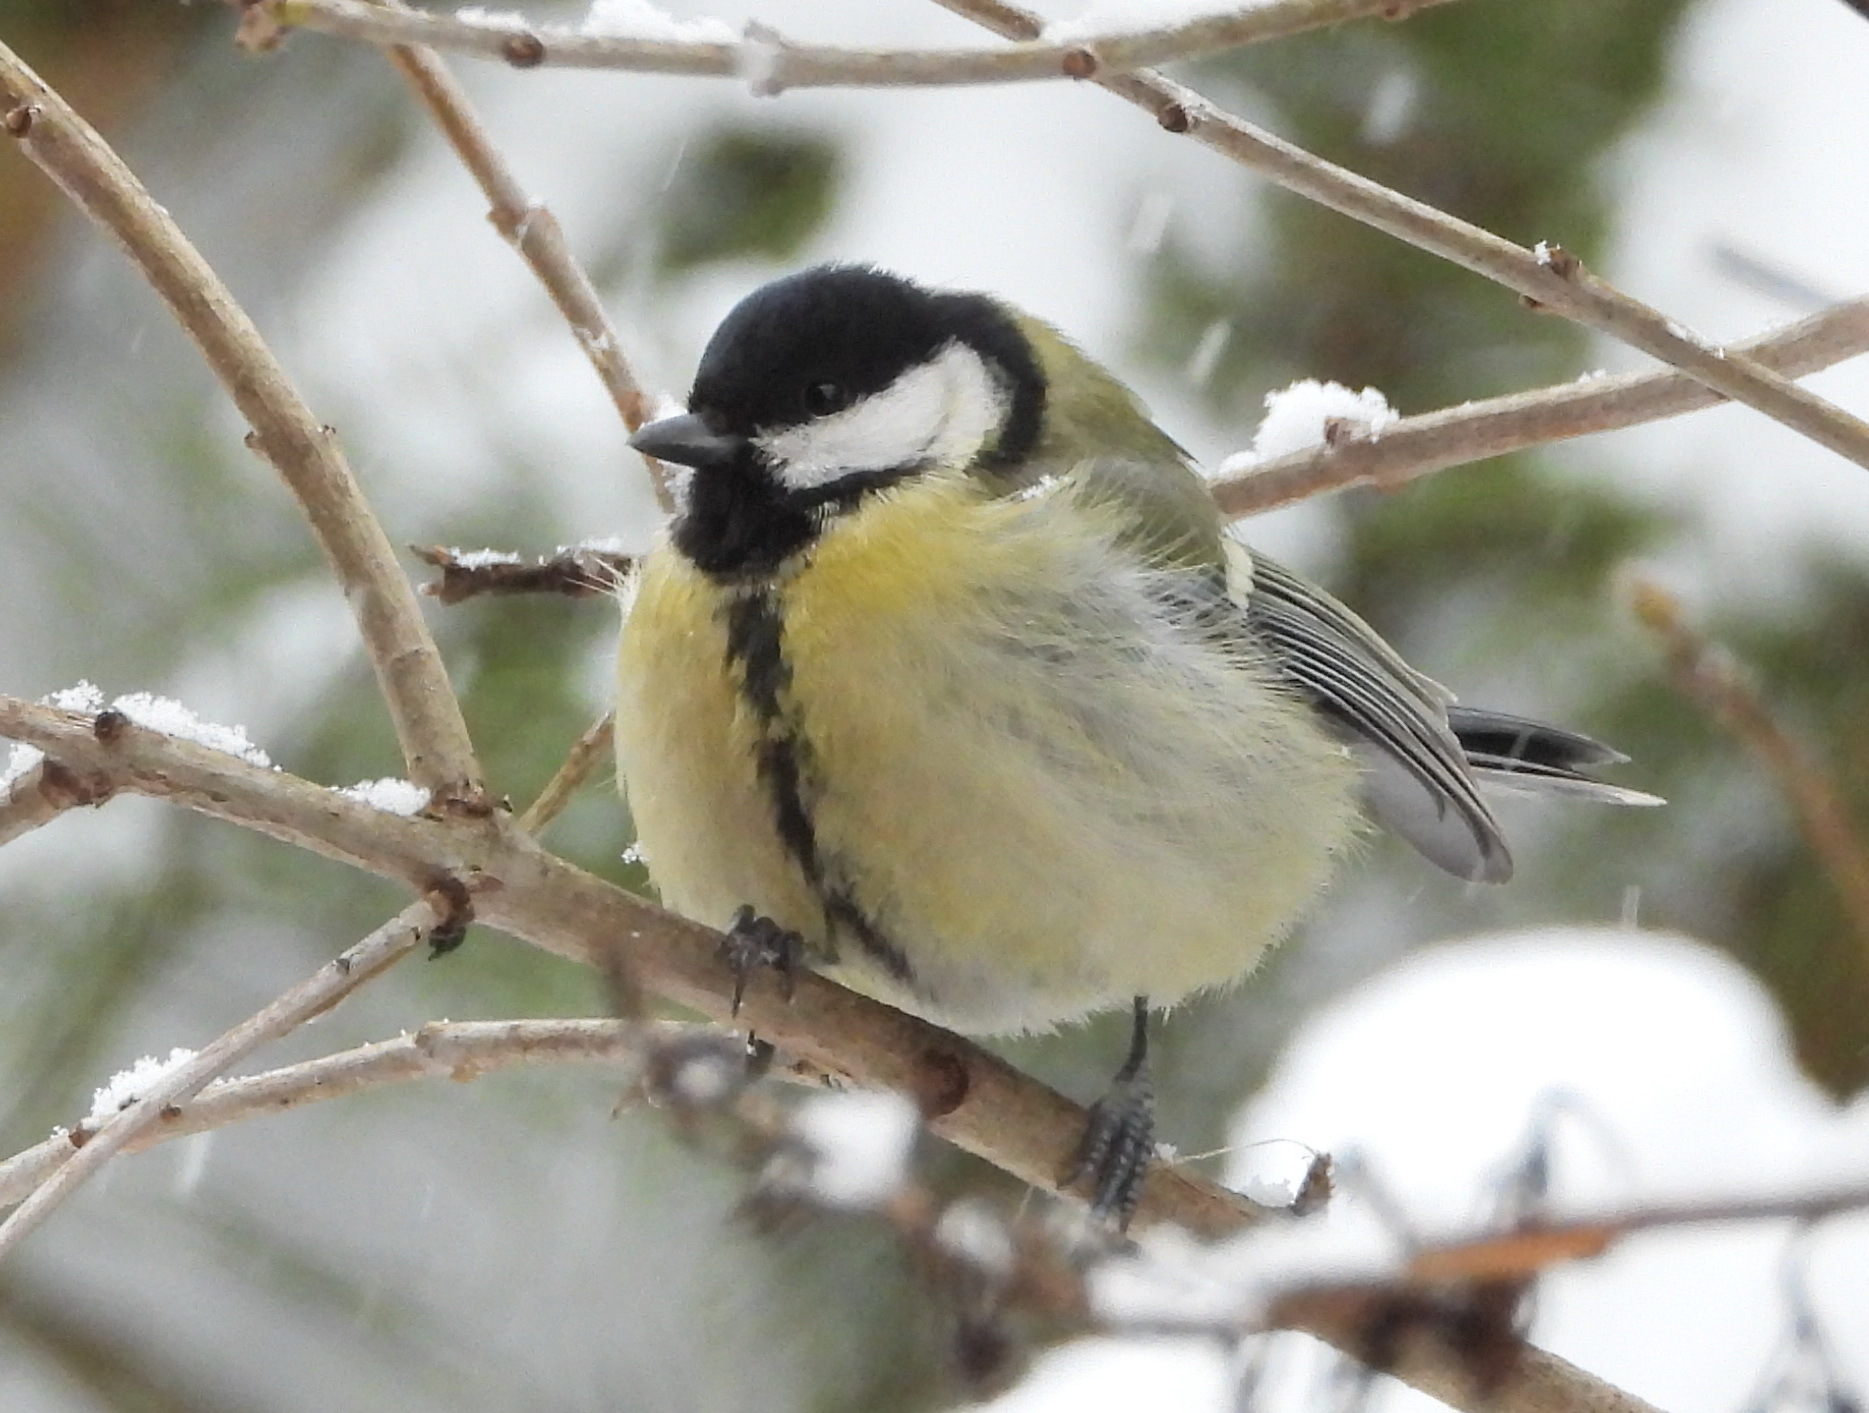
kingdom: Animalia
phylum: Chordata
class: Aves
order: Passeriformes
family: Paridae
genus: Parus
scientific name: Parus major
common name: Great tit
